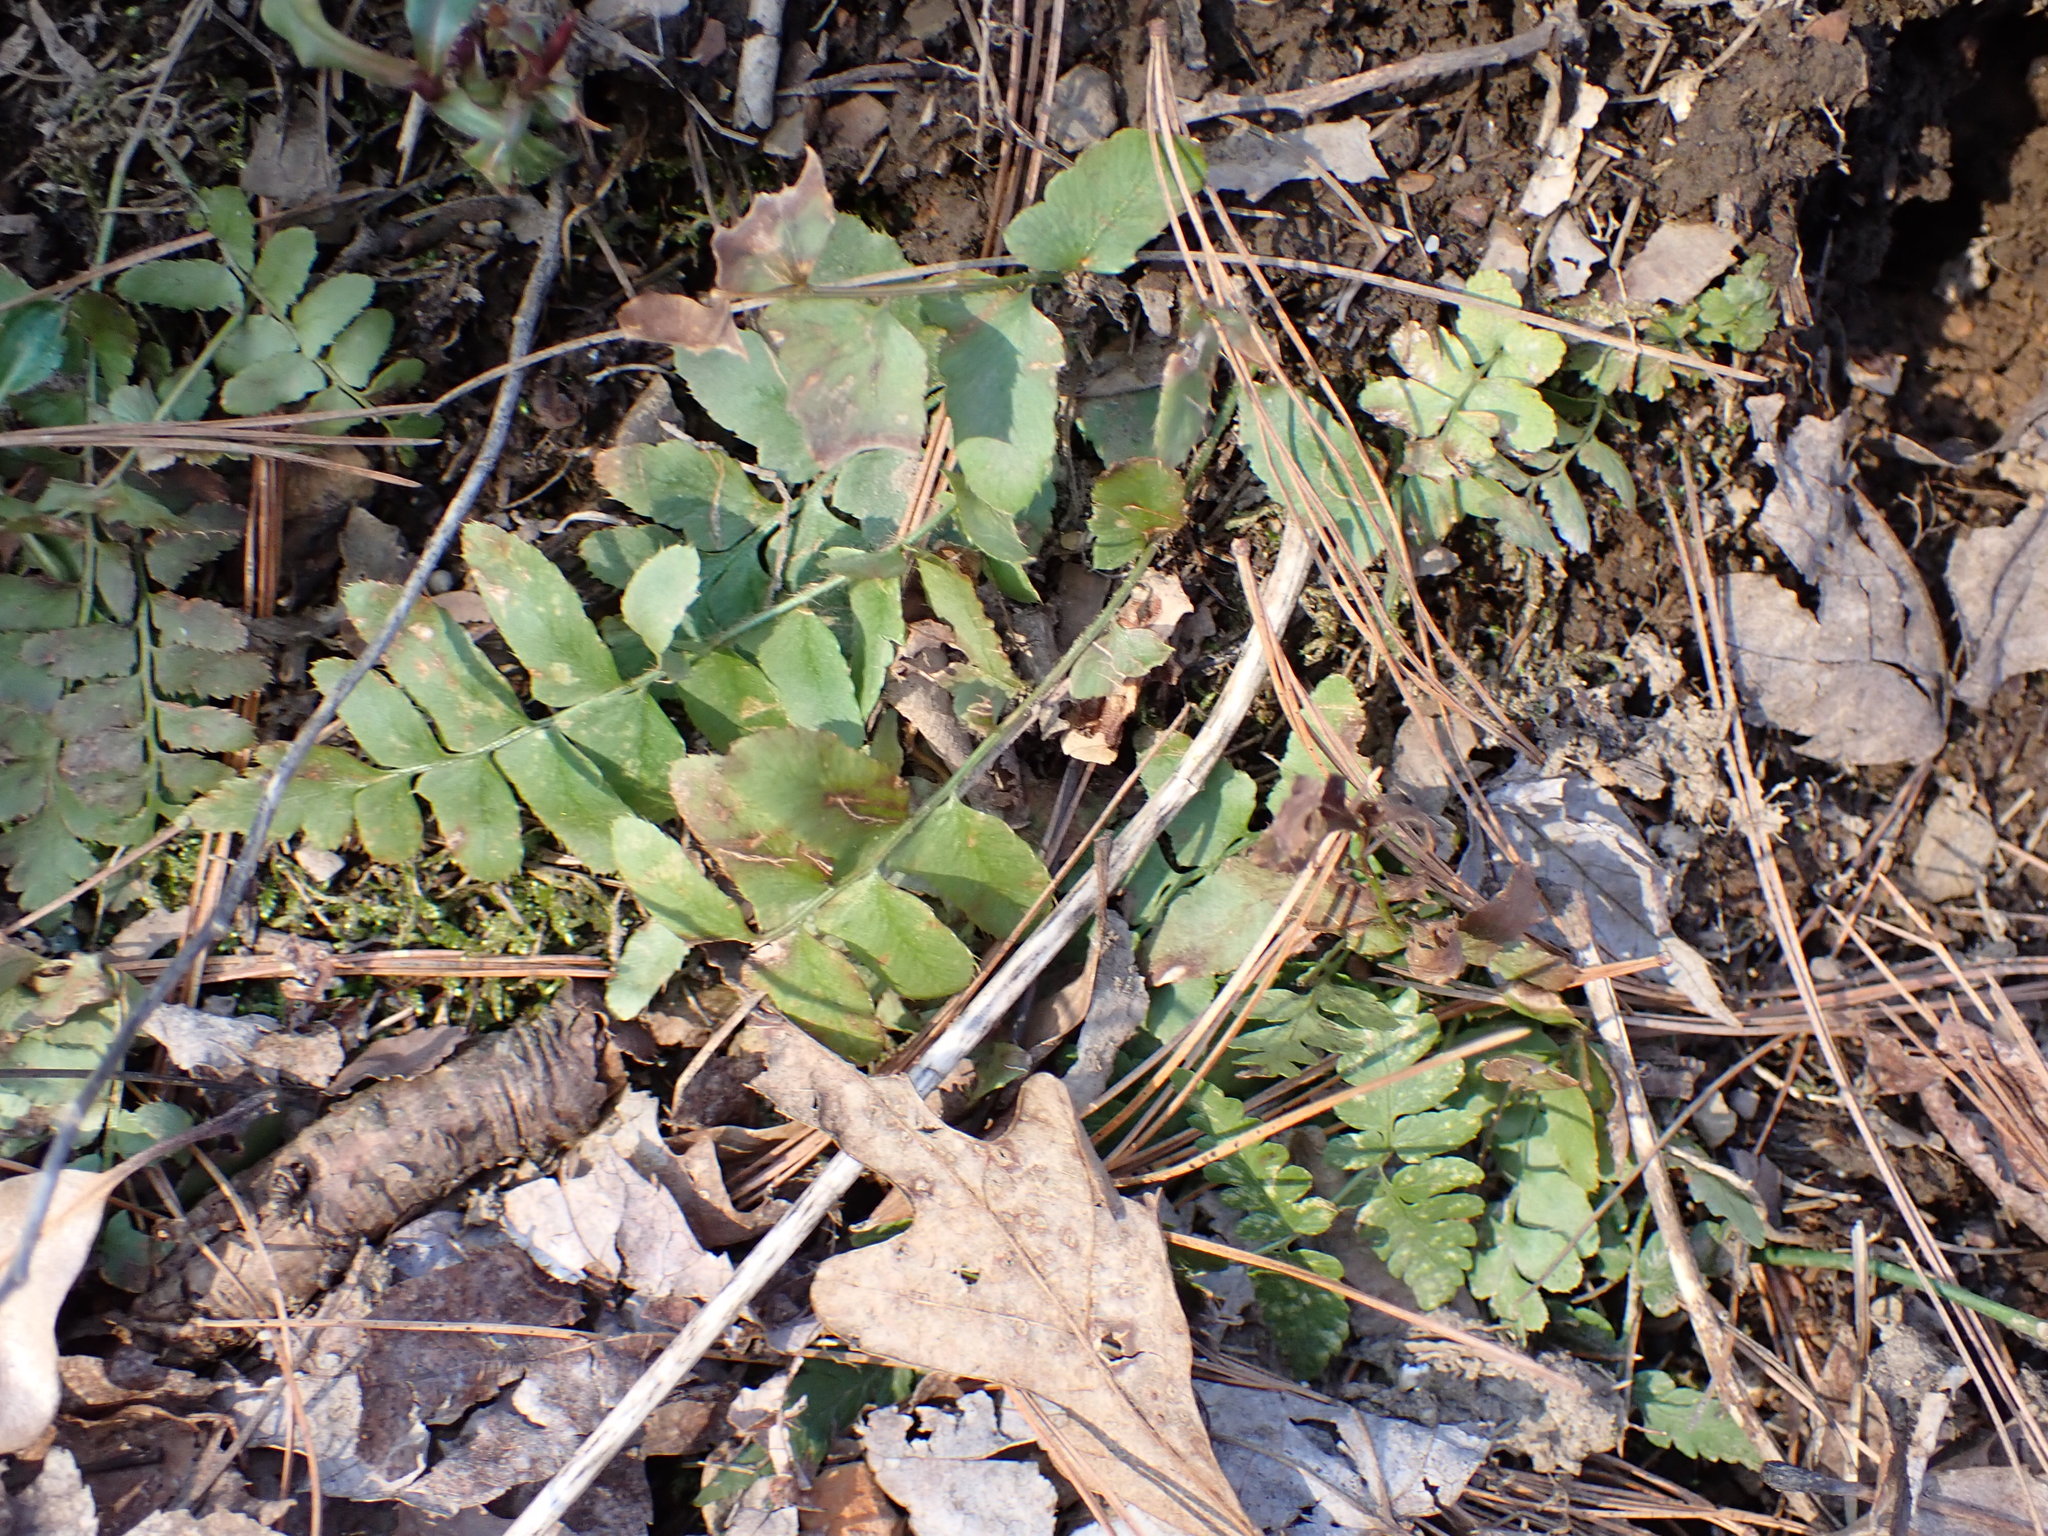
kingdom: Plantae
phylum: Tracheophyta
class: Polypodiopsida
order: Polypodiales
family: Dryopteridaceae
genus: Polystichum
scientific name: Polystichum acrostichoides
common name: Christmas fern
